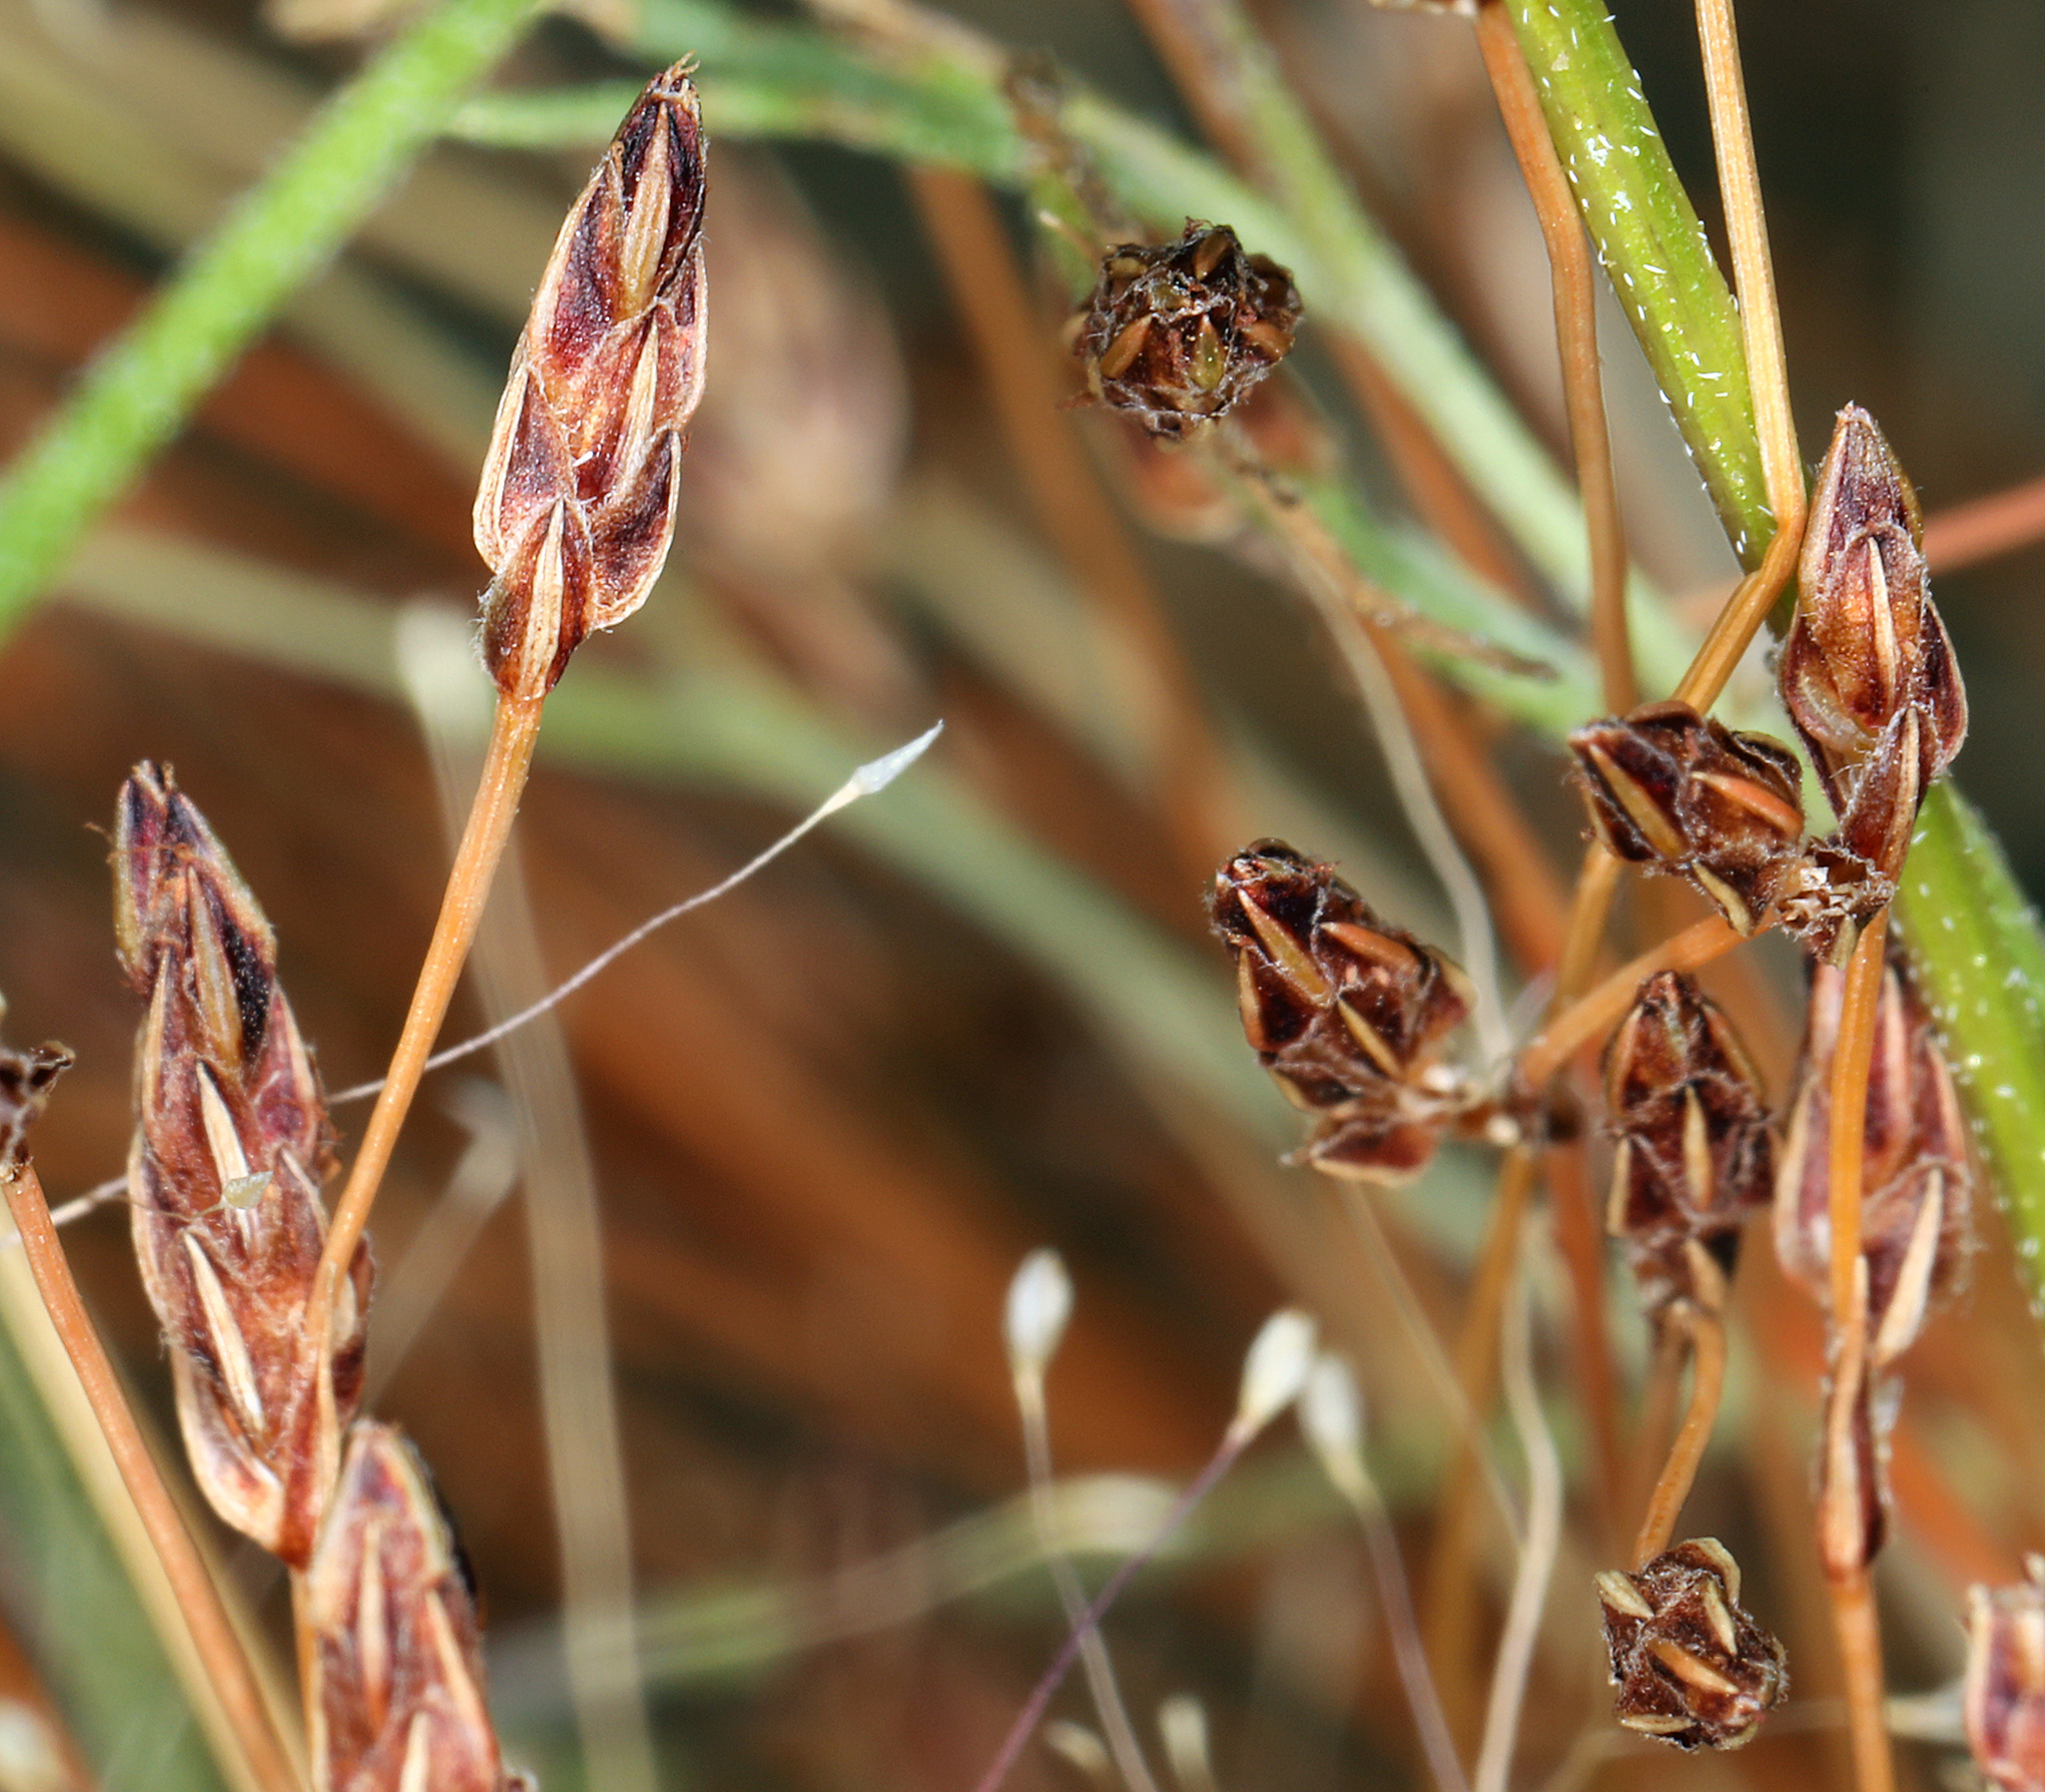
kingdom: Plantae
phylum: Tracheophyta
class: Liliopsida
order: Poales
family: Cyperaceae
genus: Bulbostylis
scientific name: Bulbostylis capillaris
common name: Densetuft hairsedge
